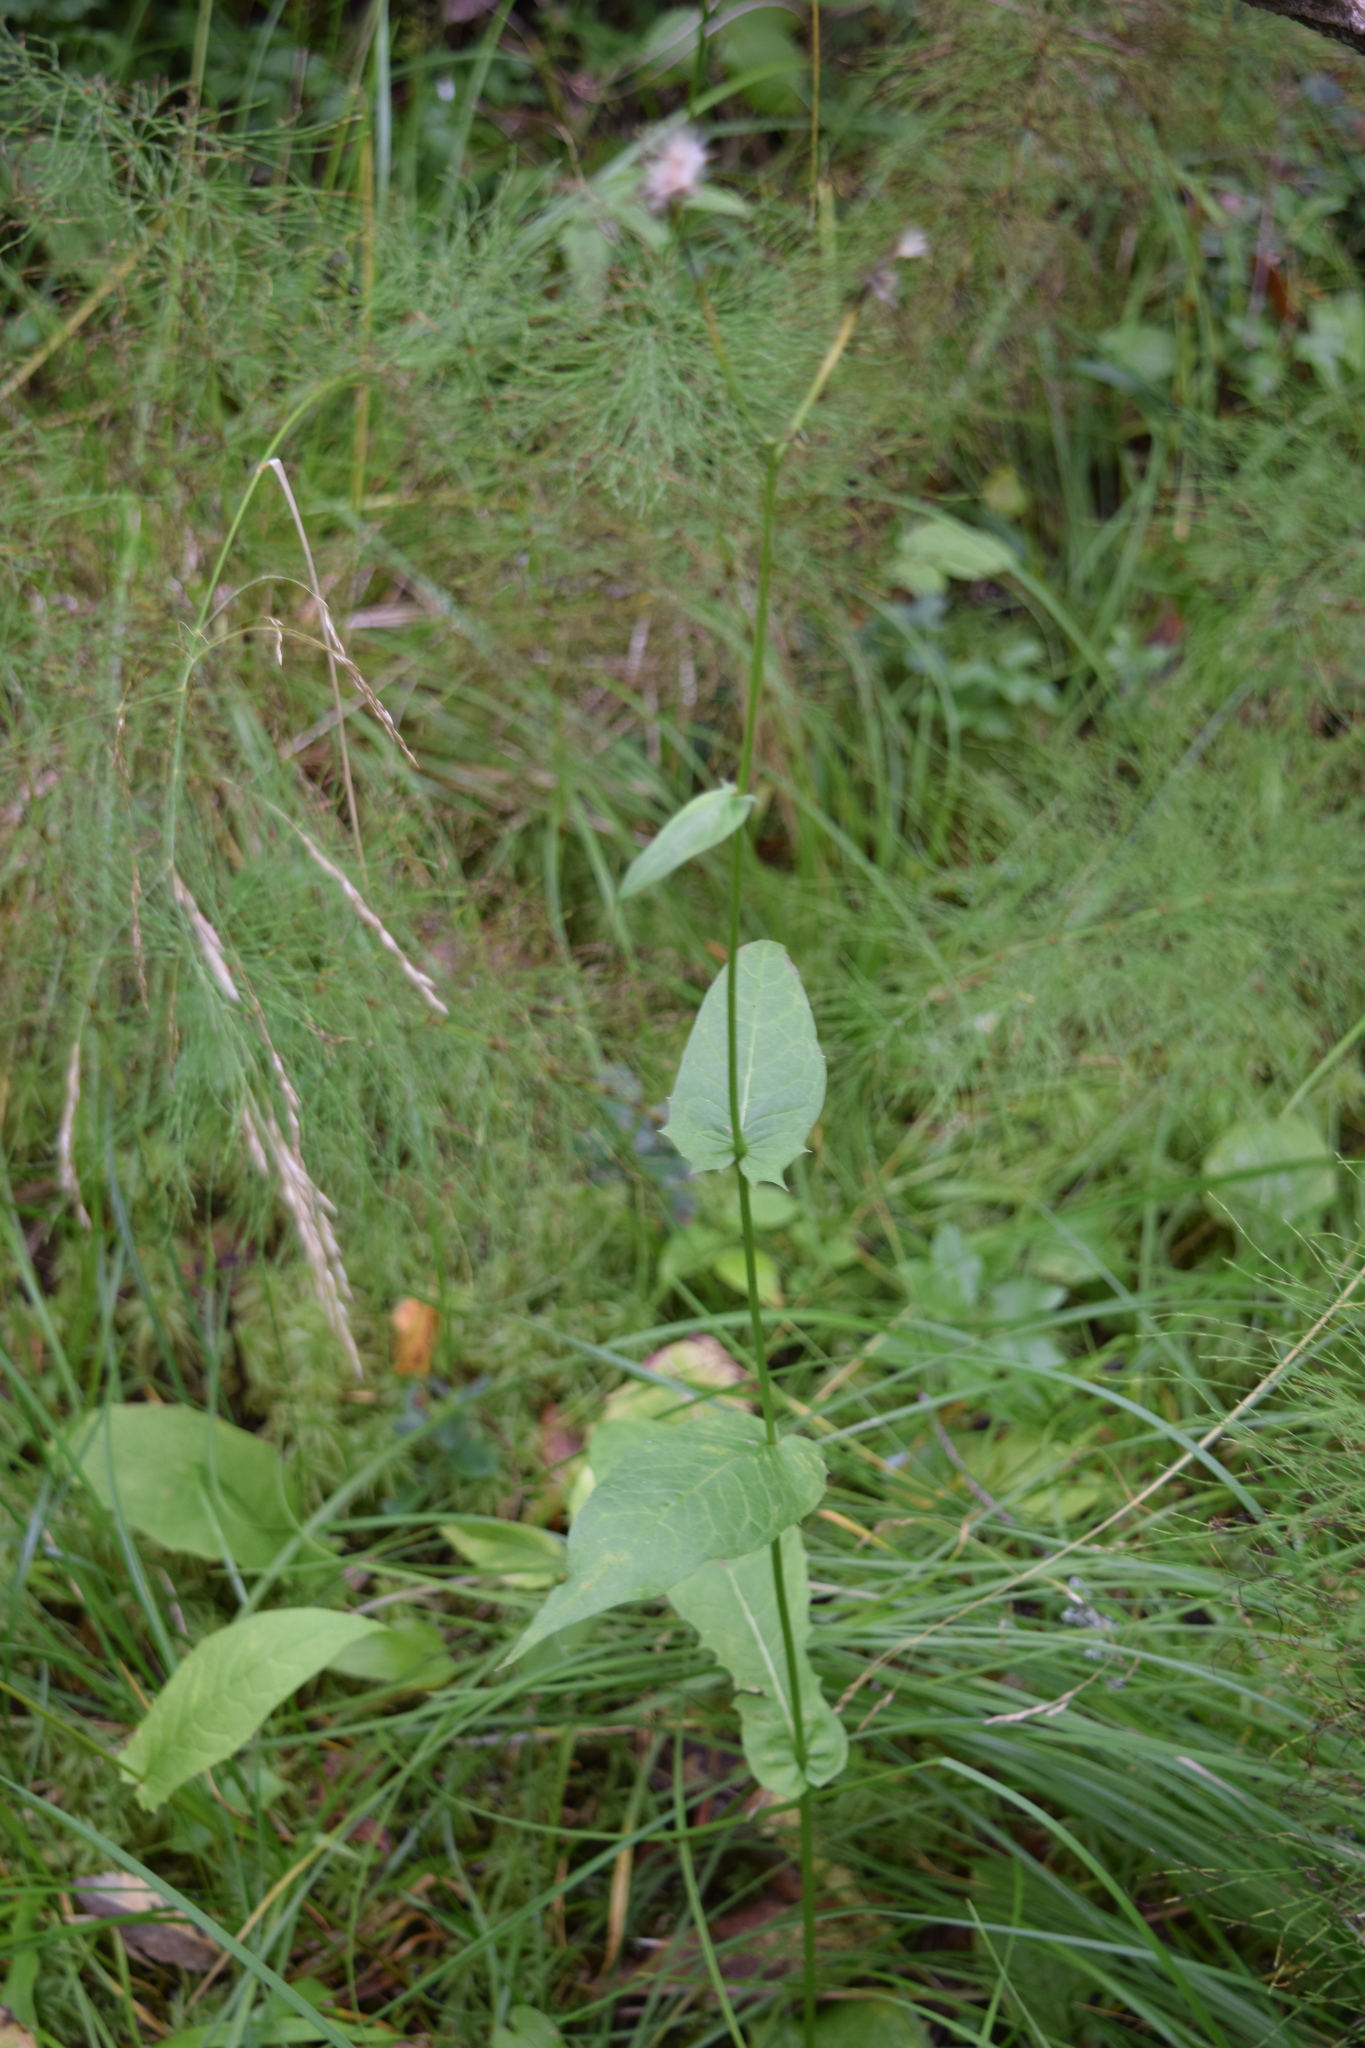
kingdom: Plantae
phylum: Tracheophyta
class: Magnoliopsida
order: Asterales
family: Asteraceae
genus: Crepis
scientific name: Crepis paludosa
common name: Marsh hawk's-beard
